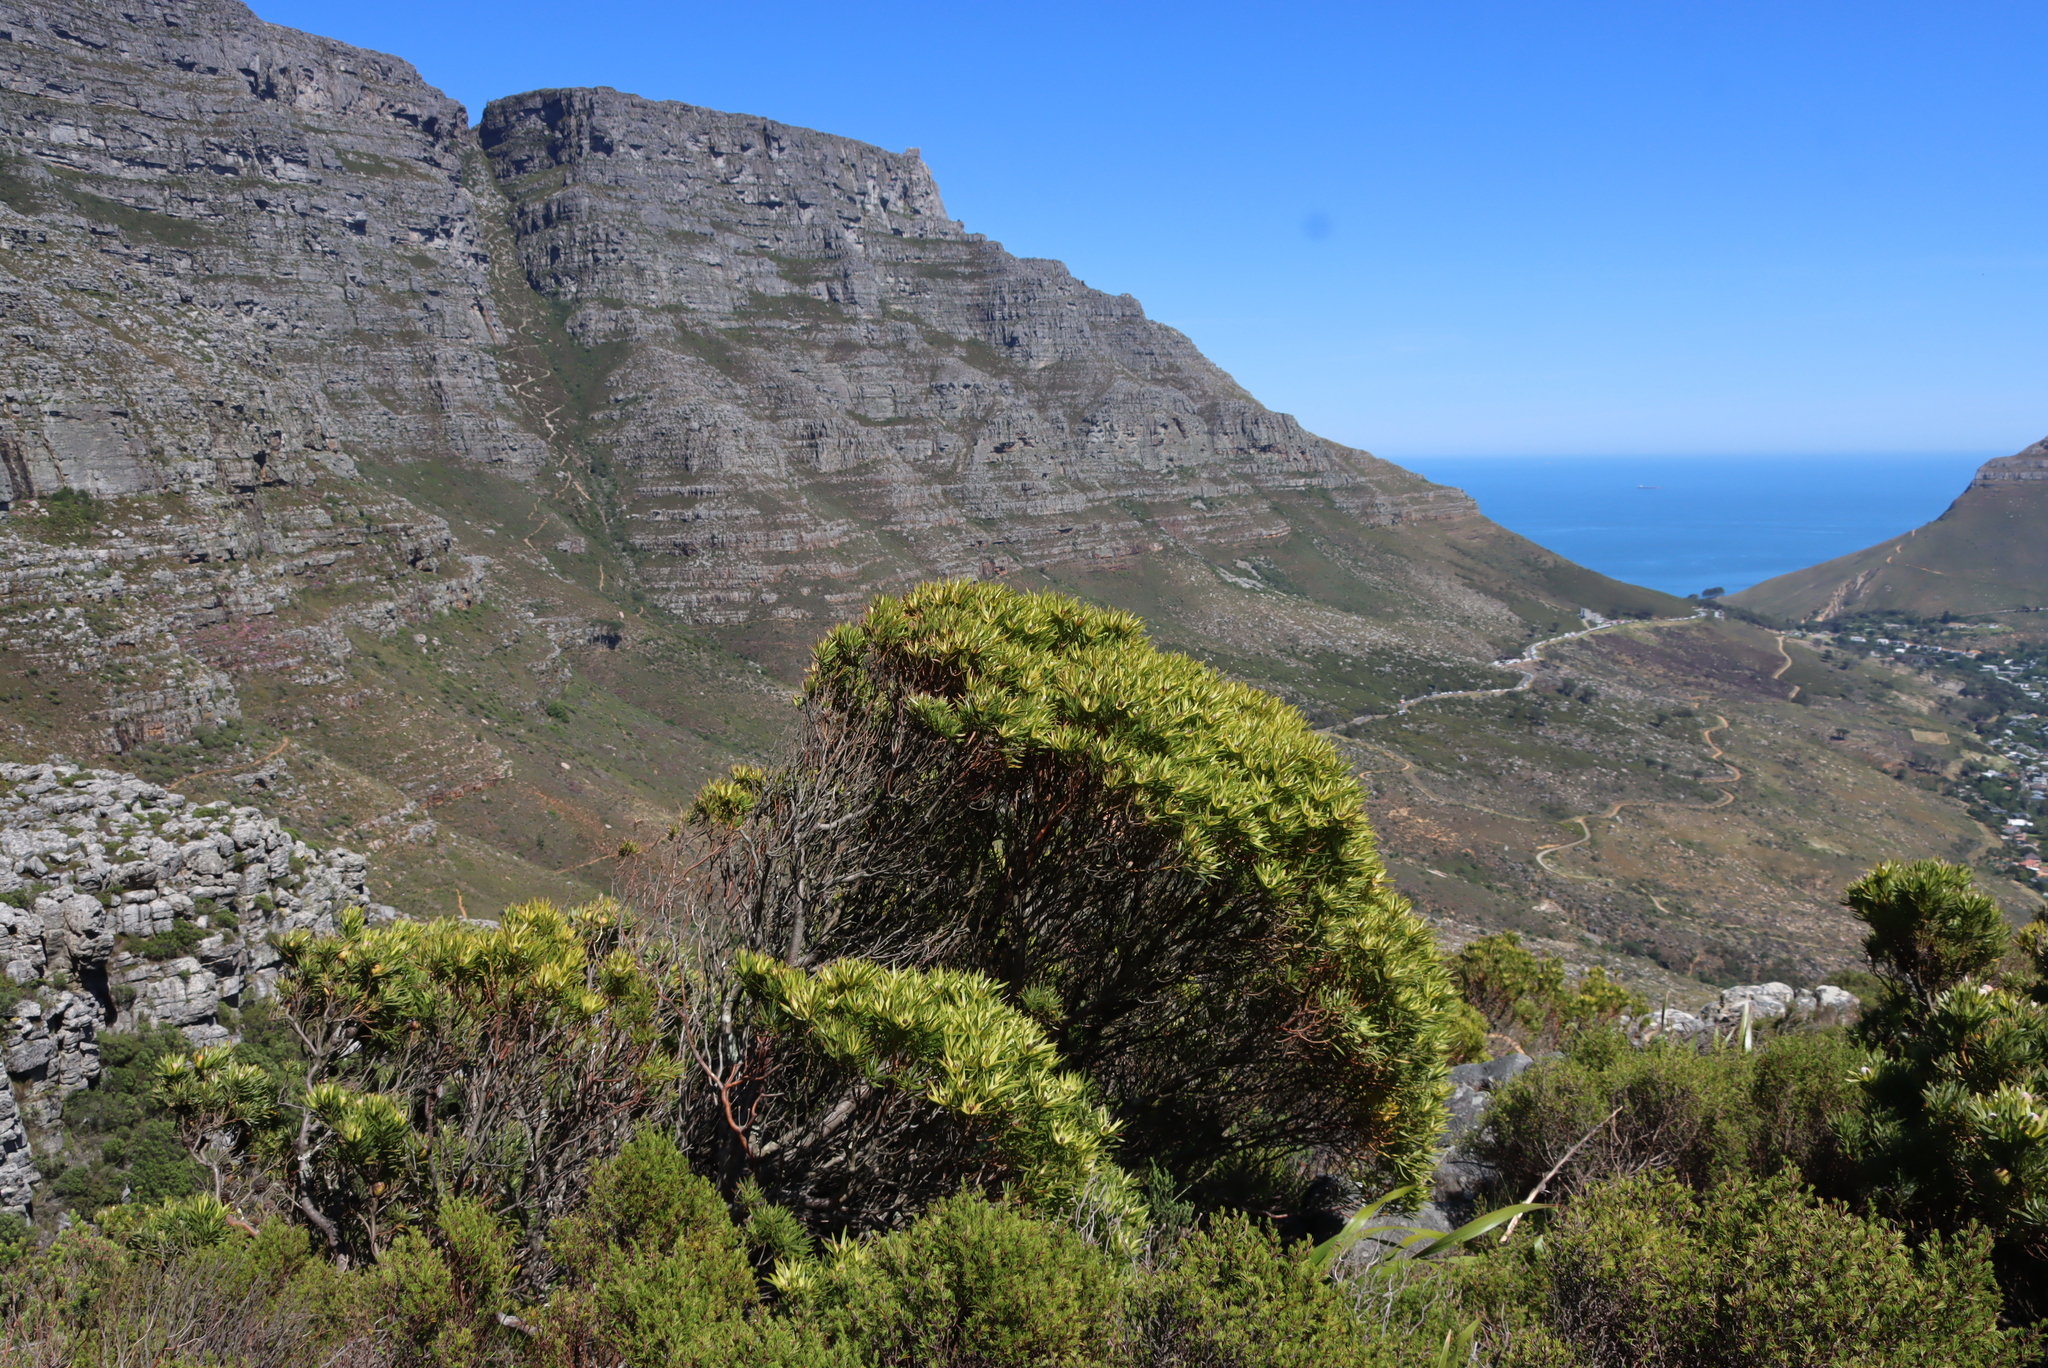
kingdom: Plantae
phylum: Tracheophyta
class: Magnoliopsida
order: Proteales
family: Proteaceae
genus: Leucadendron
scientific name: Leucadendron xanthoconus
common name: Sickle-leaf conebush
